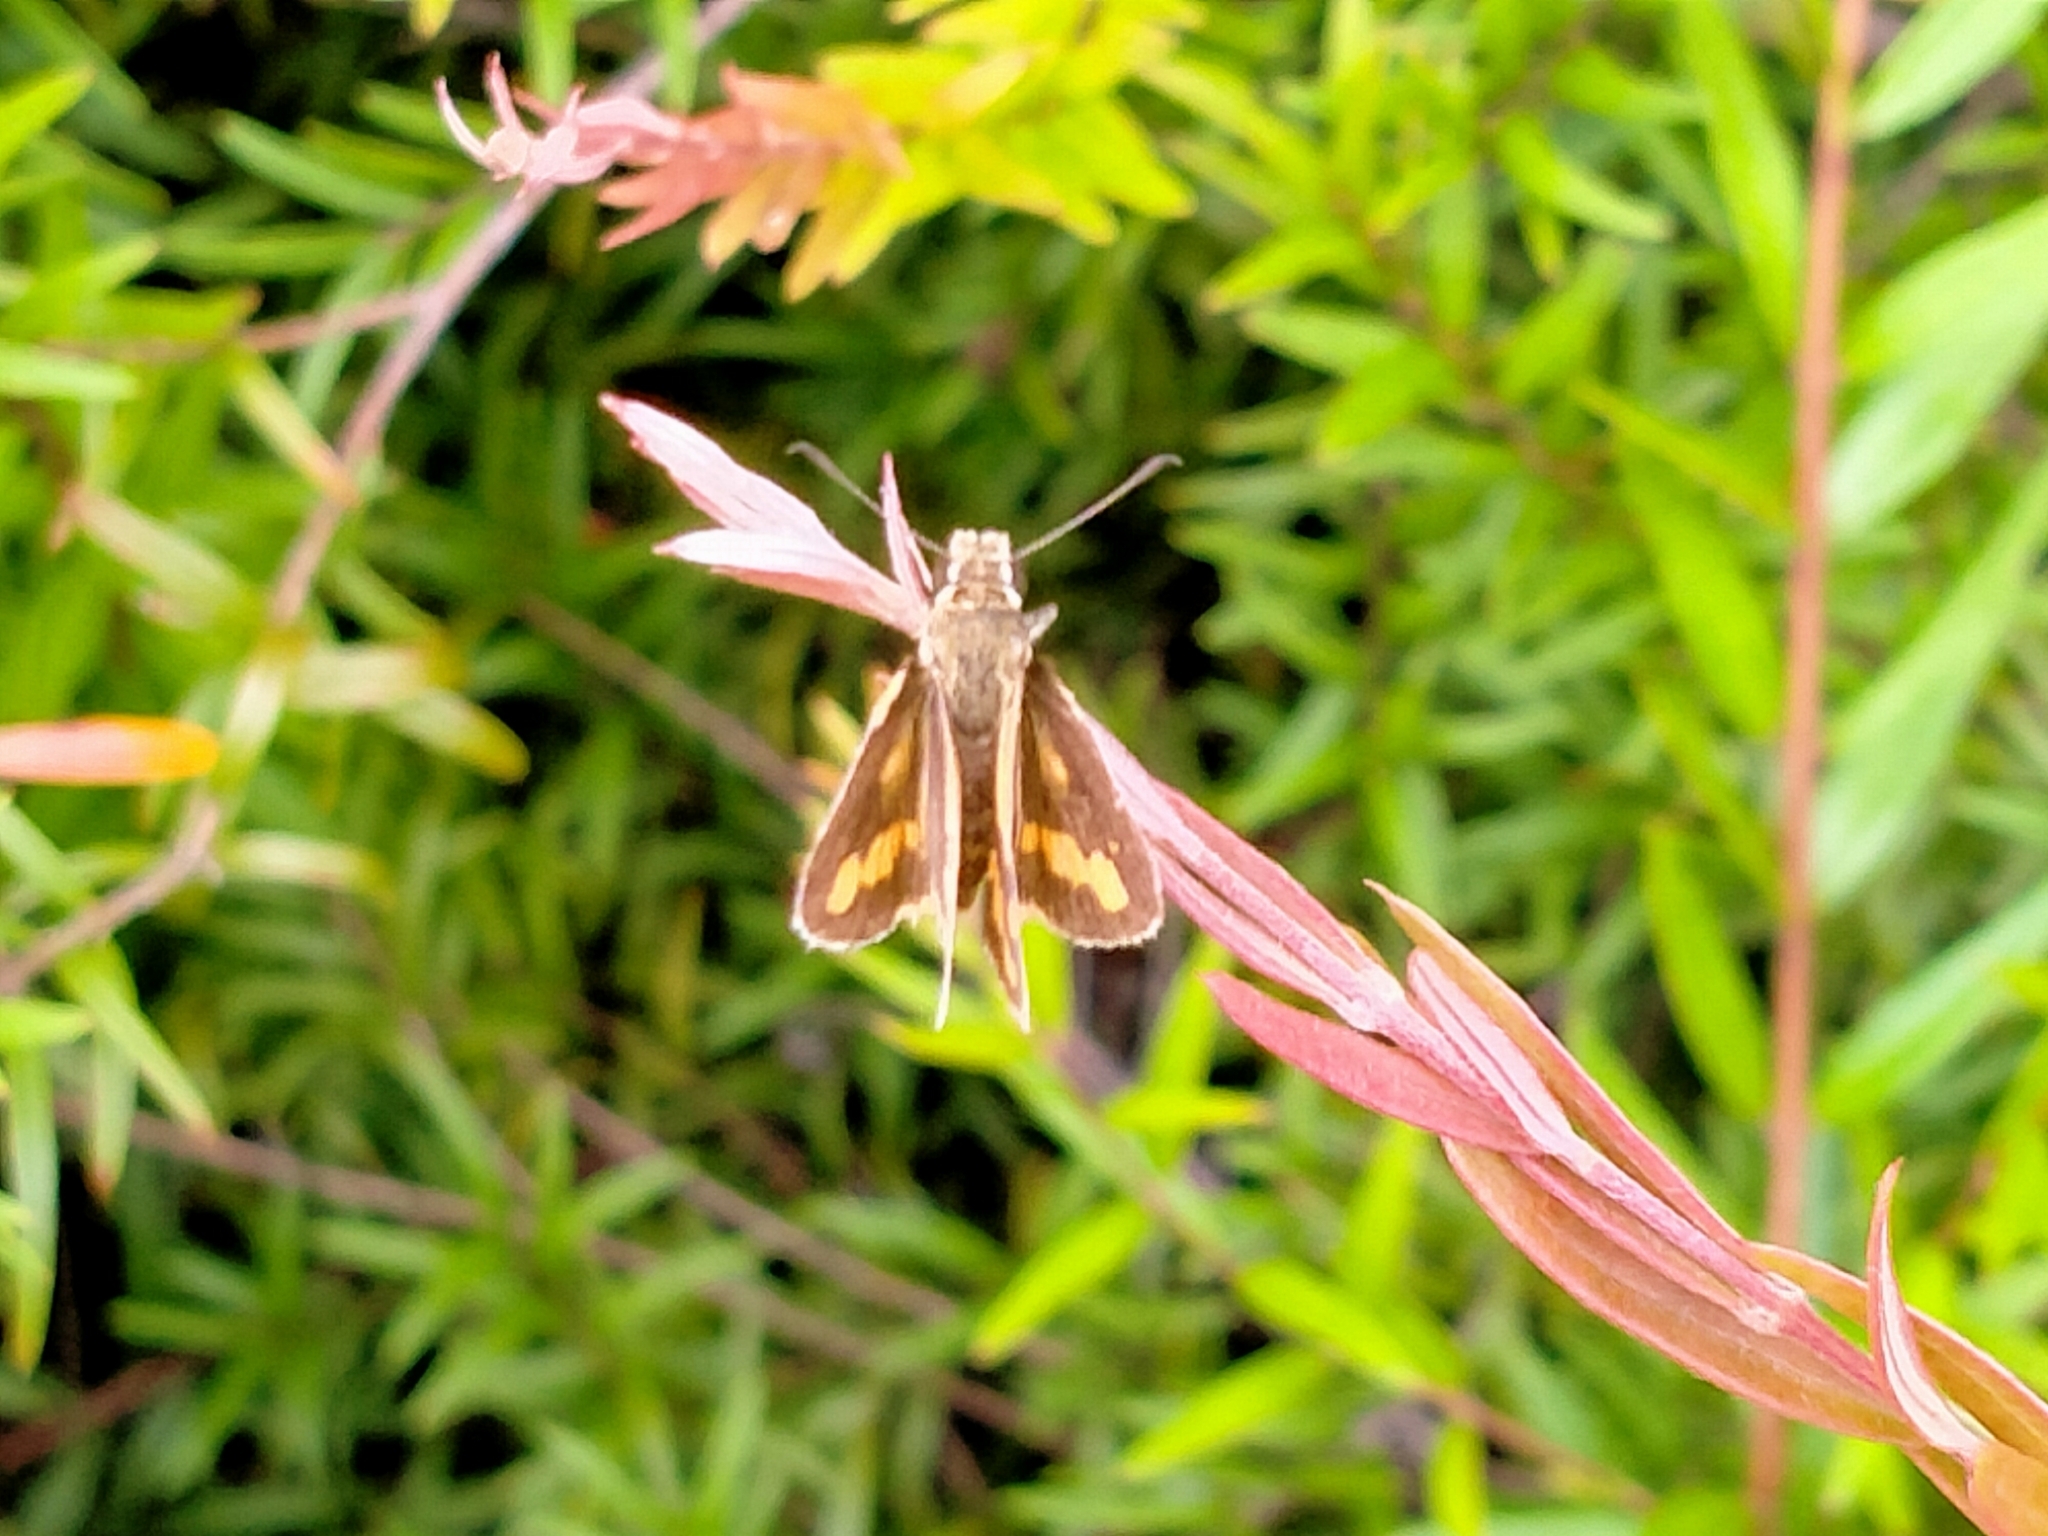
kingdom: Animalia
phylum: Arthropoda
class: Insecta
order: Lepidoptera
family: Hesperiidae
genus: Ocybadistes
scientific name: Ocybadistes flavovittata
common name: Narrow-brand grass-dart
